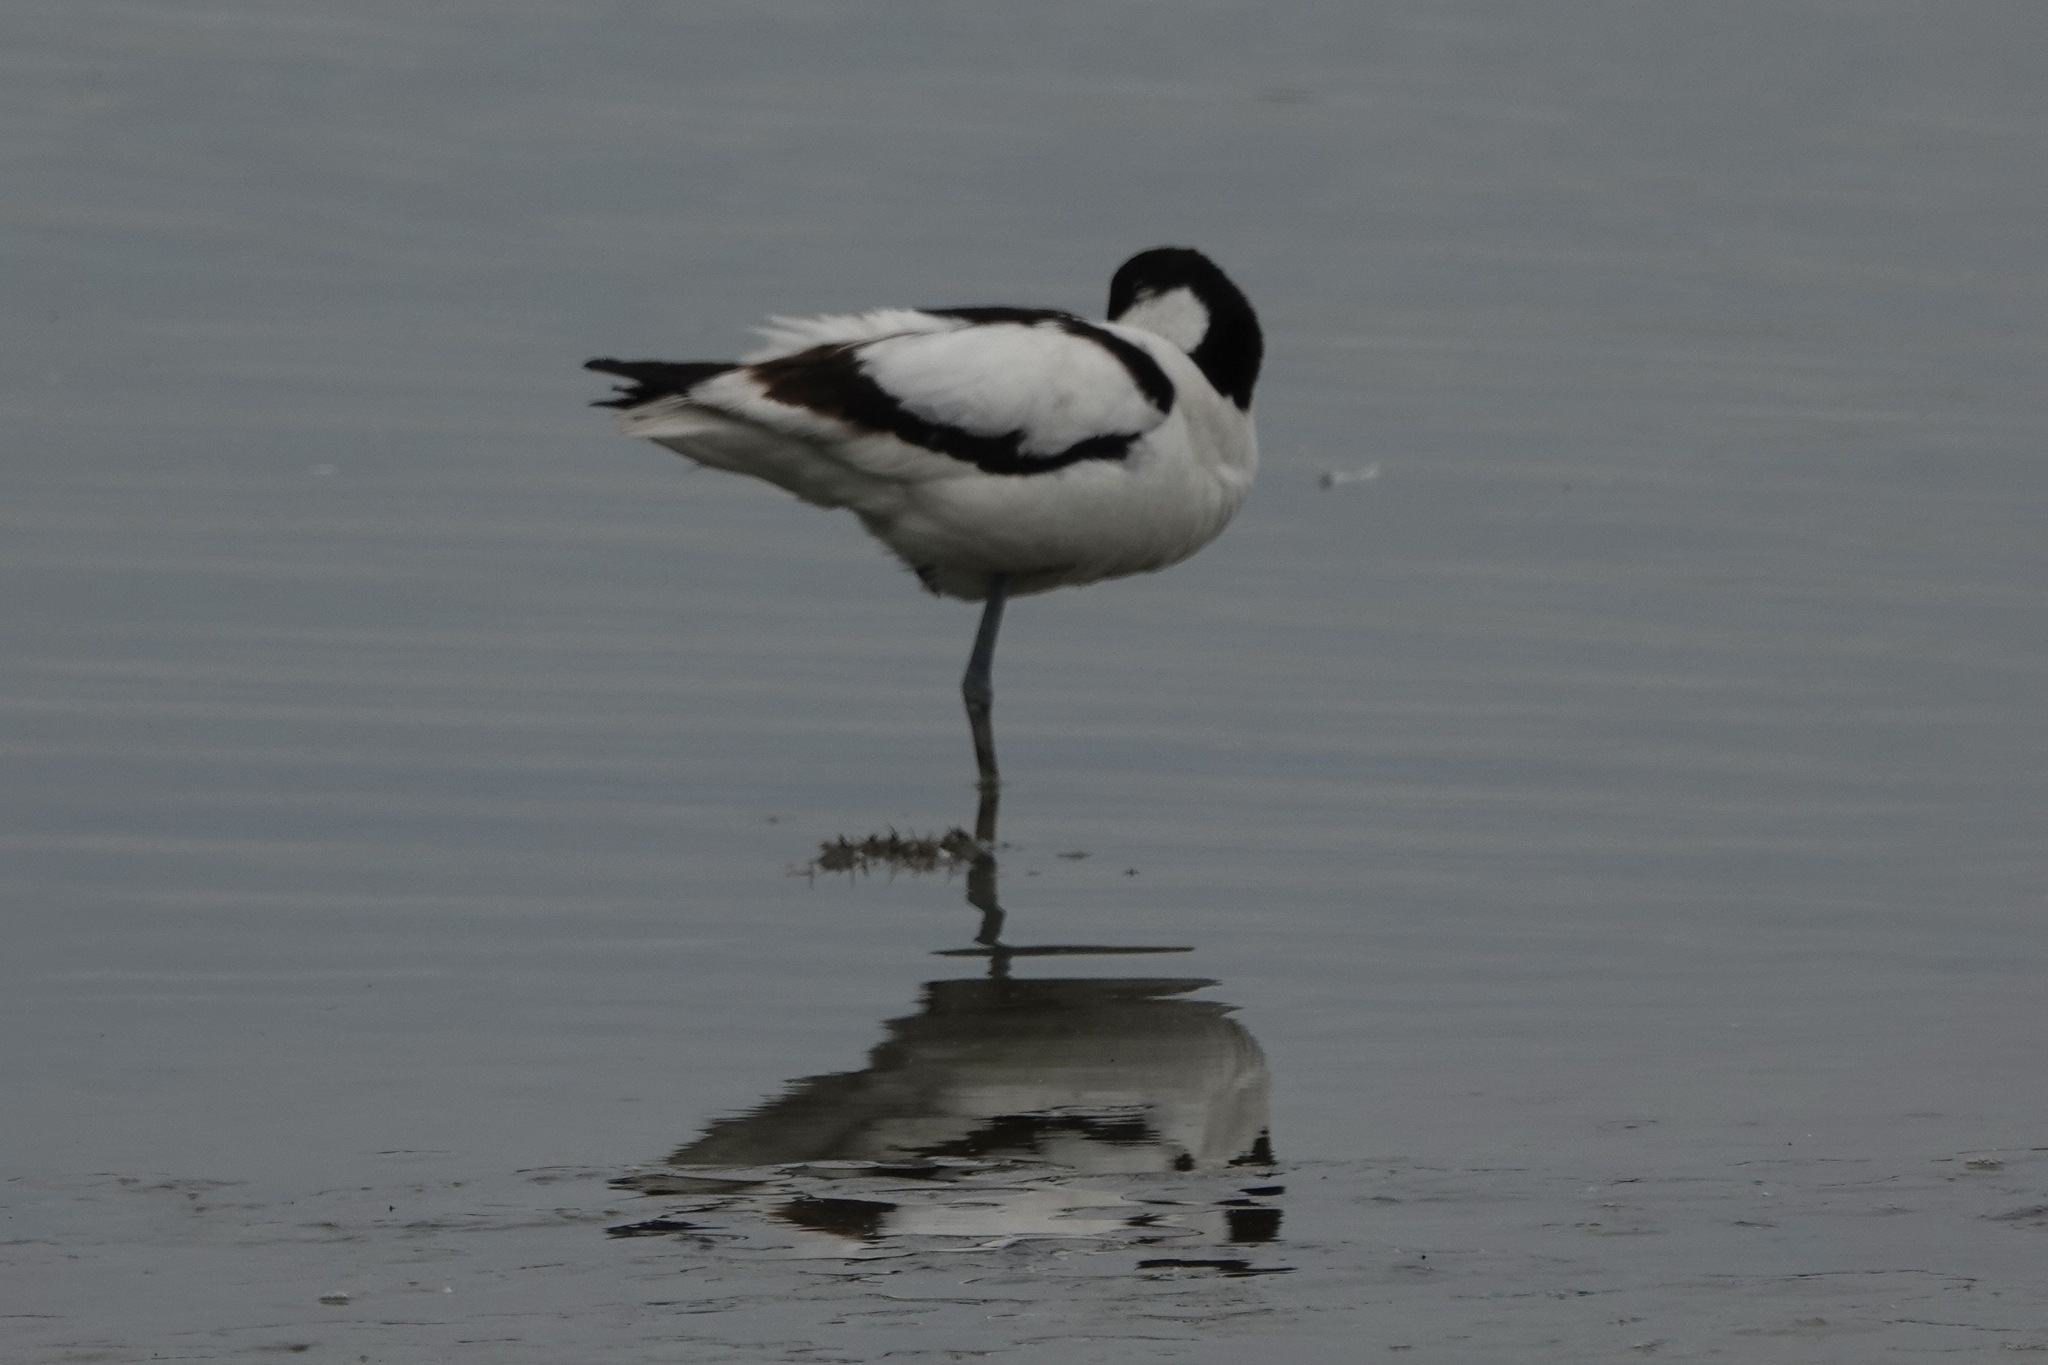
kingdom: Animalia
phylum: Chordata
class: Aves
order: Charadriiformes
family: Recurvirostridae
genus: Recurvirostra
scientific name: Recurvirostra avosetta
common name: Pied avocet
